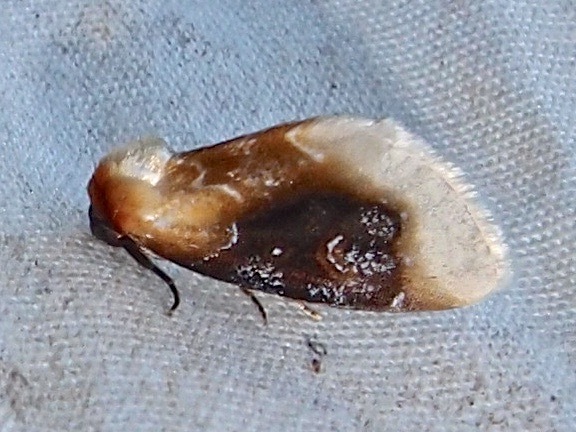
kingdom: Animalia
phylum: Arthropoda
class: Insecta
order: Lepidoptera
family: Noctuidae
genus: Chrysoecia
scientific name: Chrysoecia scira
